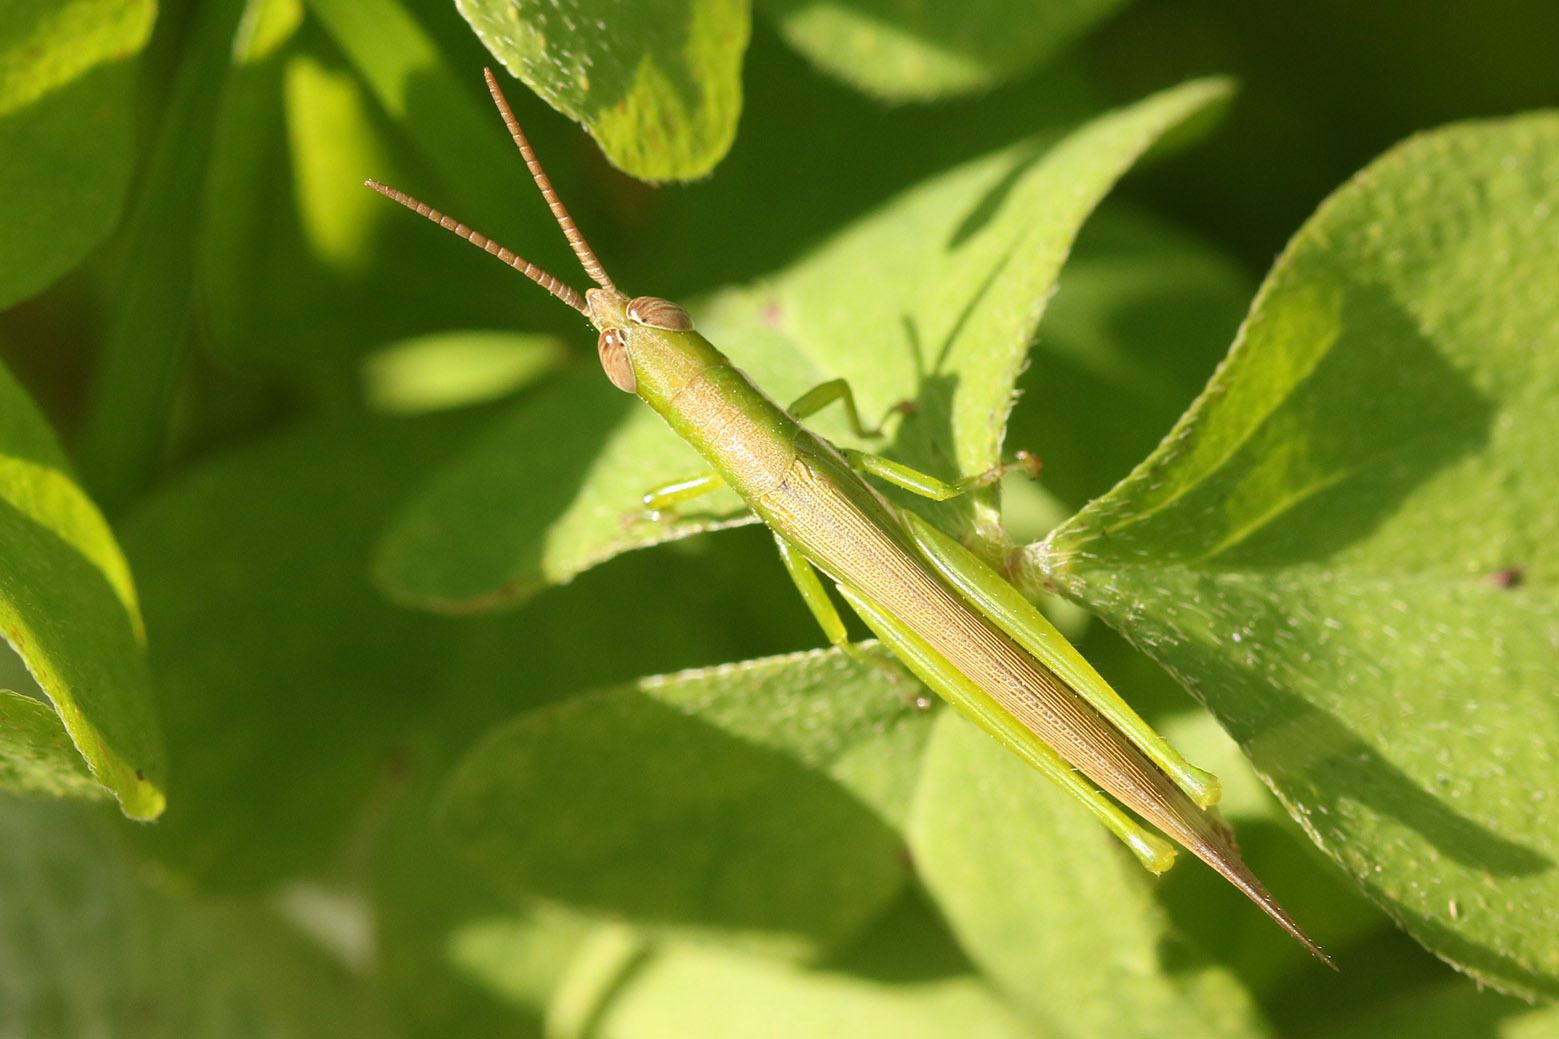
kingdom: Animalia
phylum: Arthropoda
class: Insecta
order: Orthoptera
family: Acrididae
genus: Tucayaca
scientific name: Tucayaca gracilis
